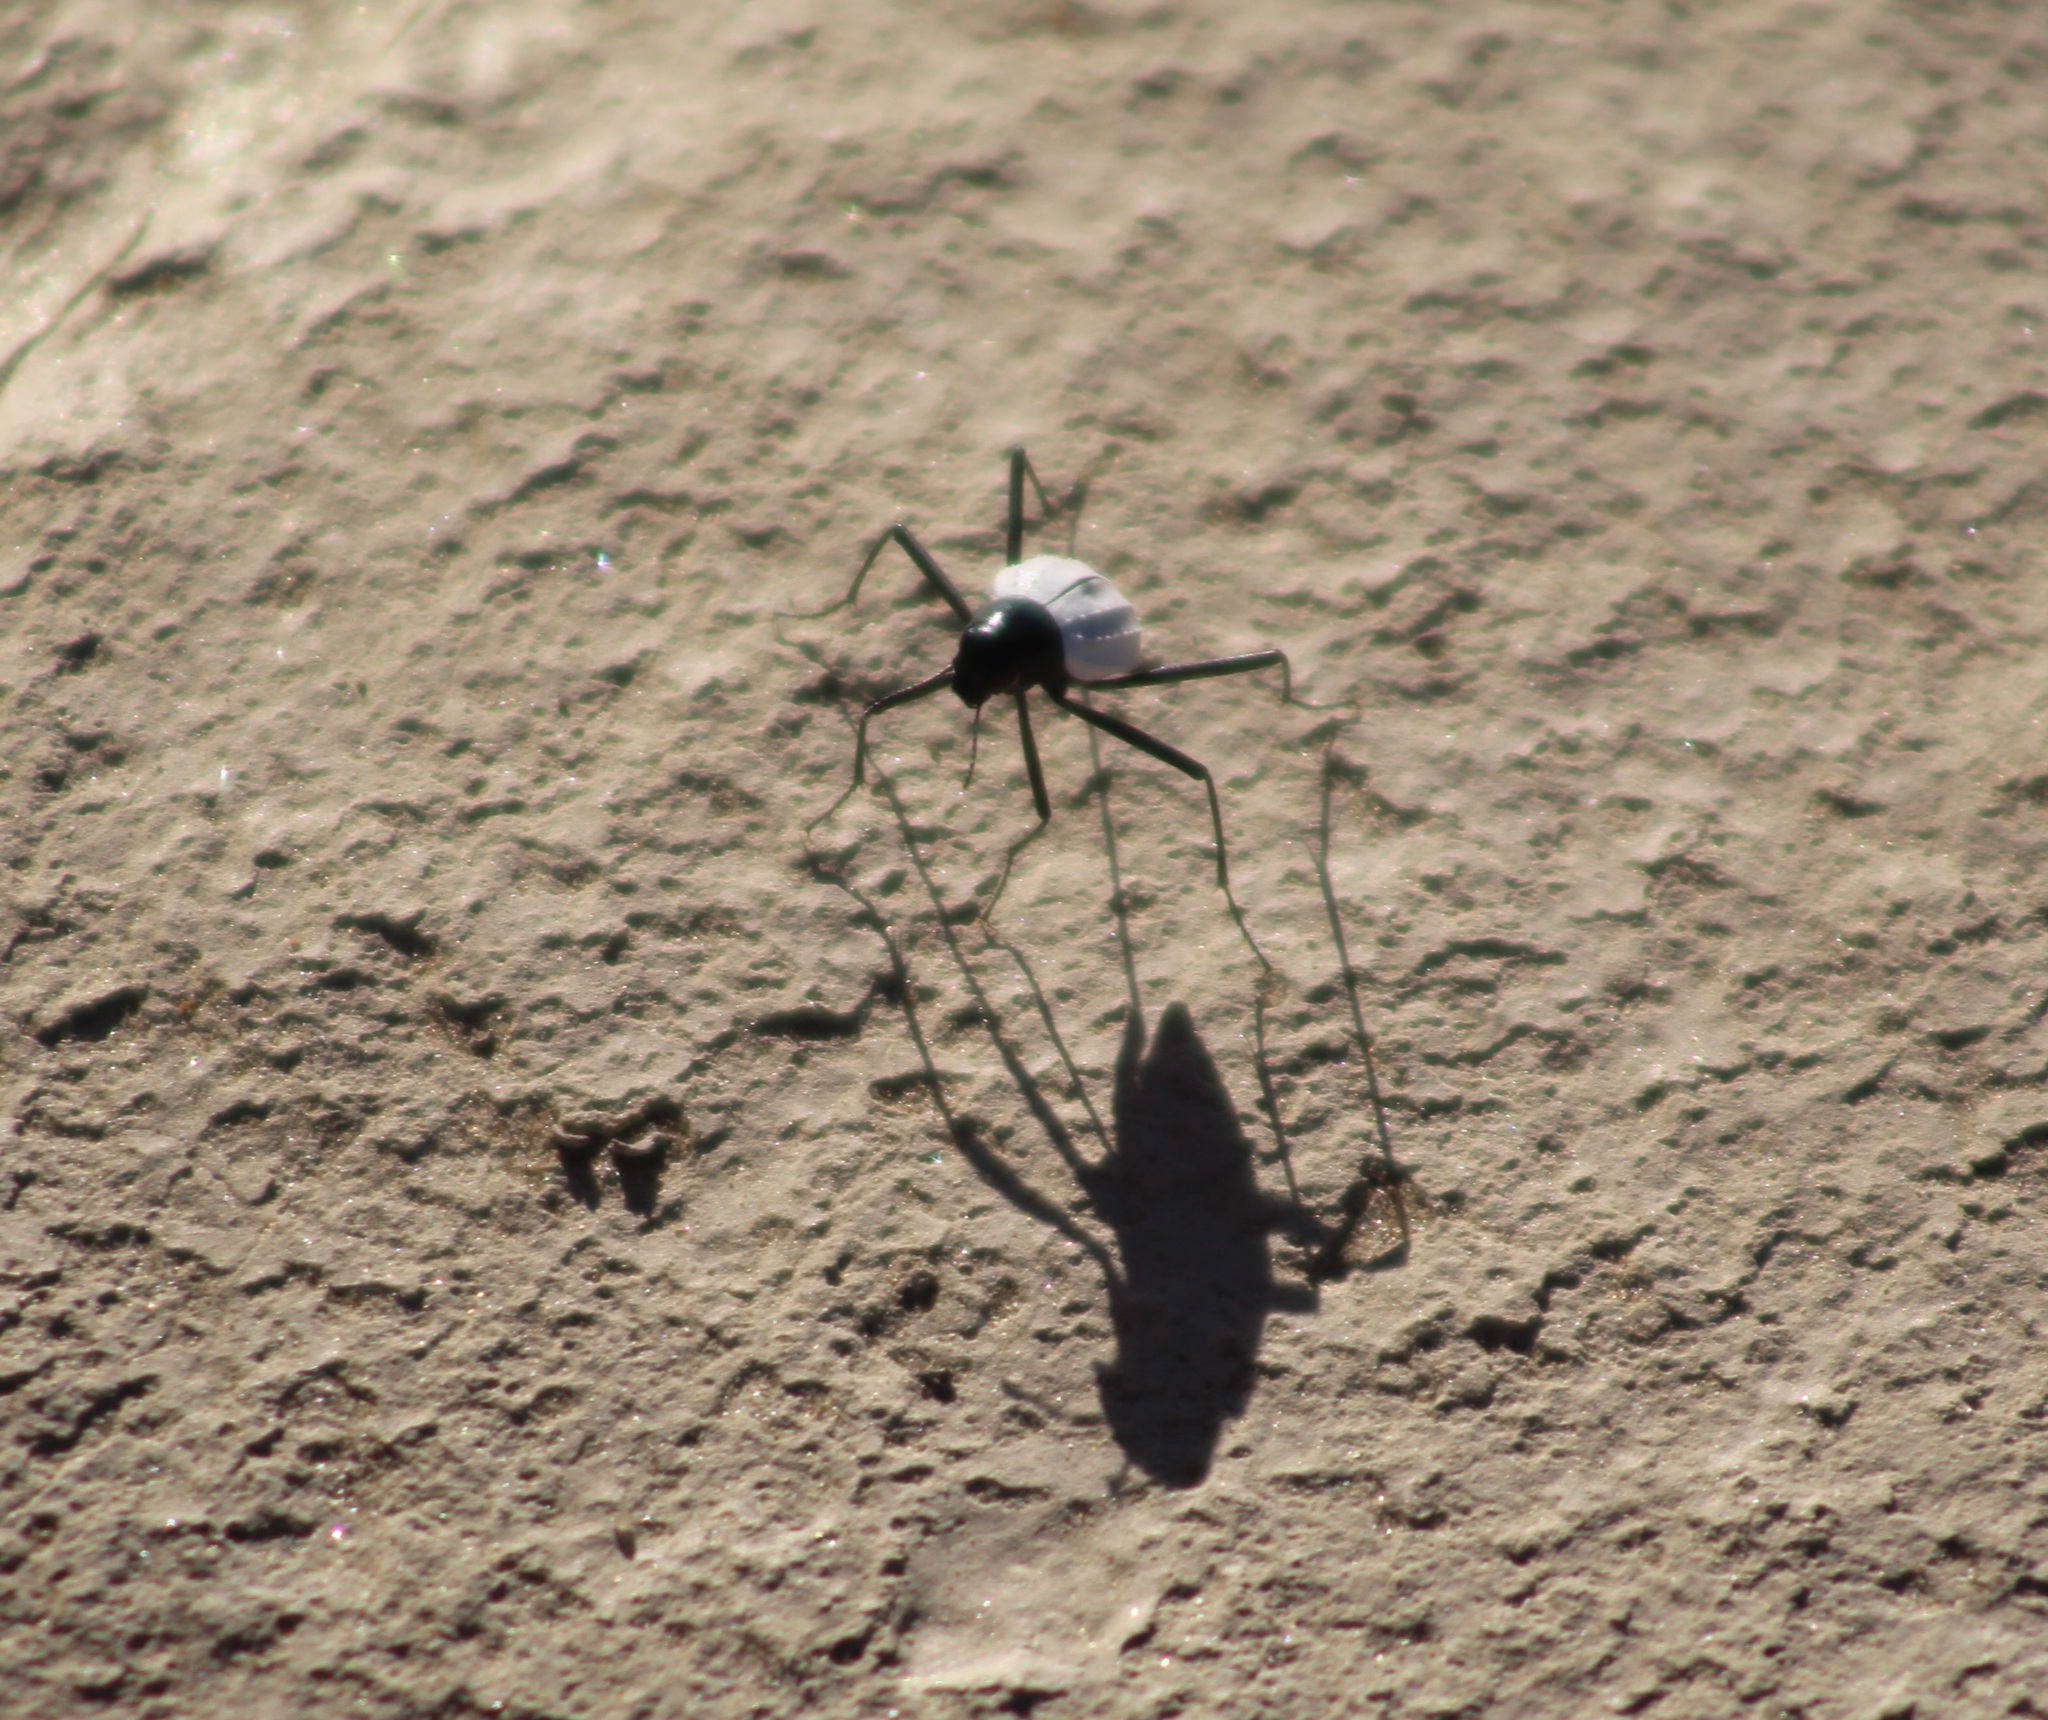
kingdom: Animalia
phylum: Arthropoda
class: Insecta
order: Coleoptera
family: Tenebrionidae
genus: Stenocara
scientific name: Stenocara
